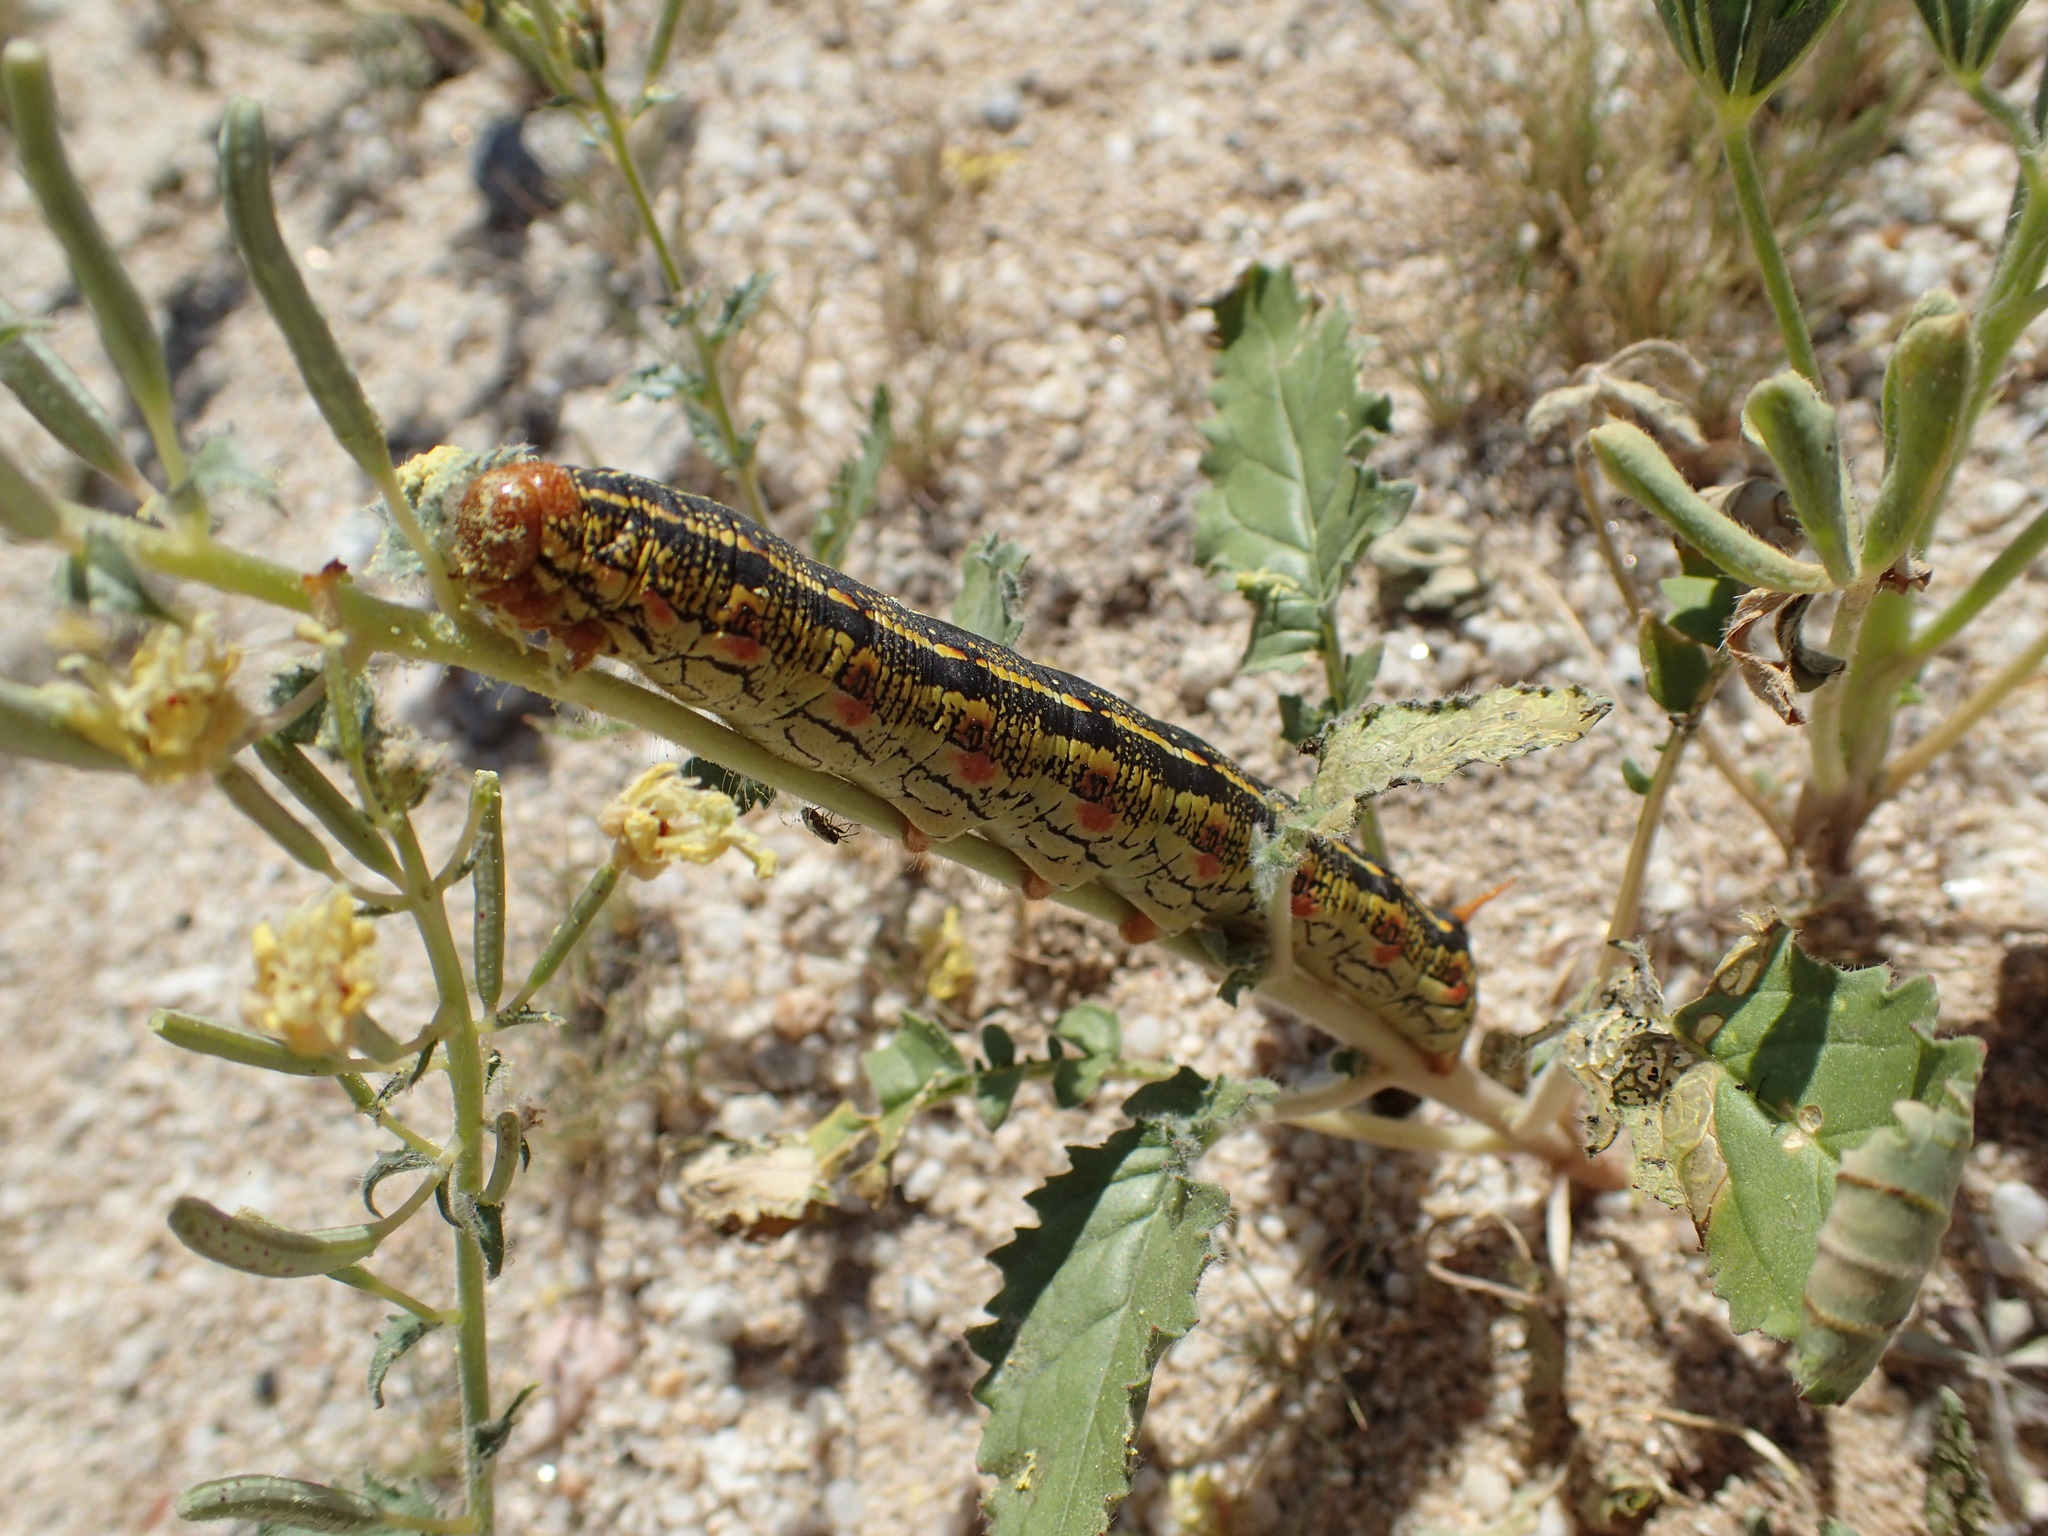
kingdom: Animalia
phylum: Arthropoda
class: Insecta
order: Lepidoptera
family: Sphingidae
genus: Hyles
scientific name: Hyles lineata
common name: White-lined sphinx
